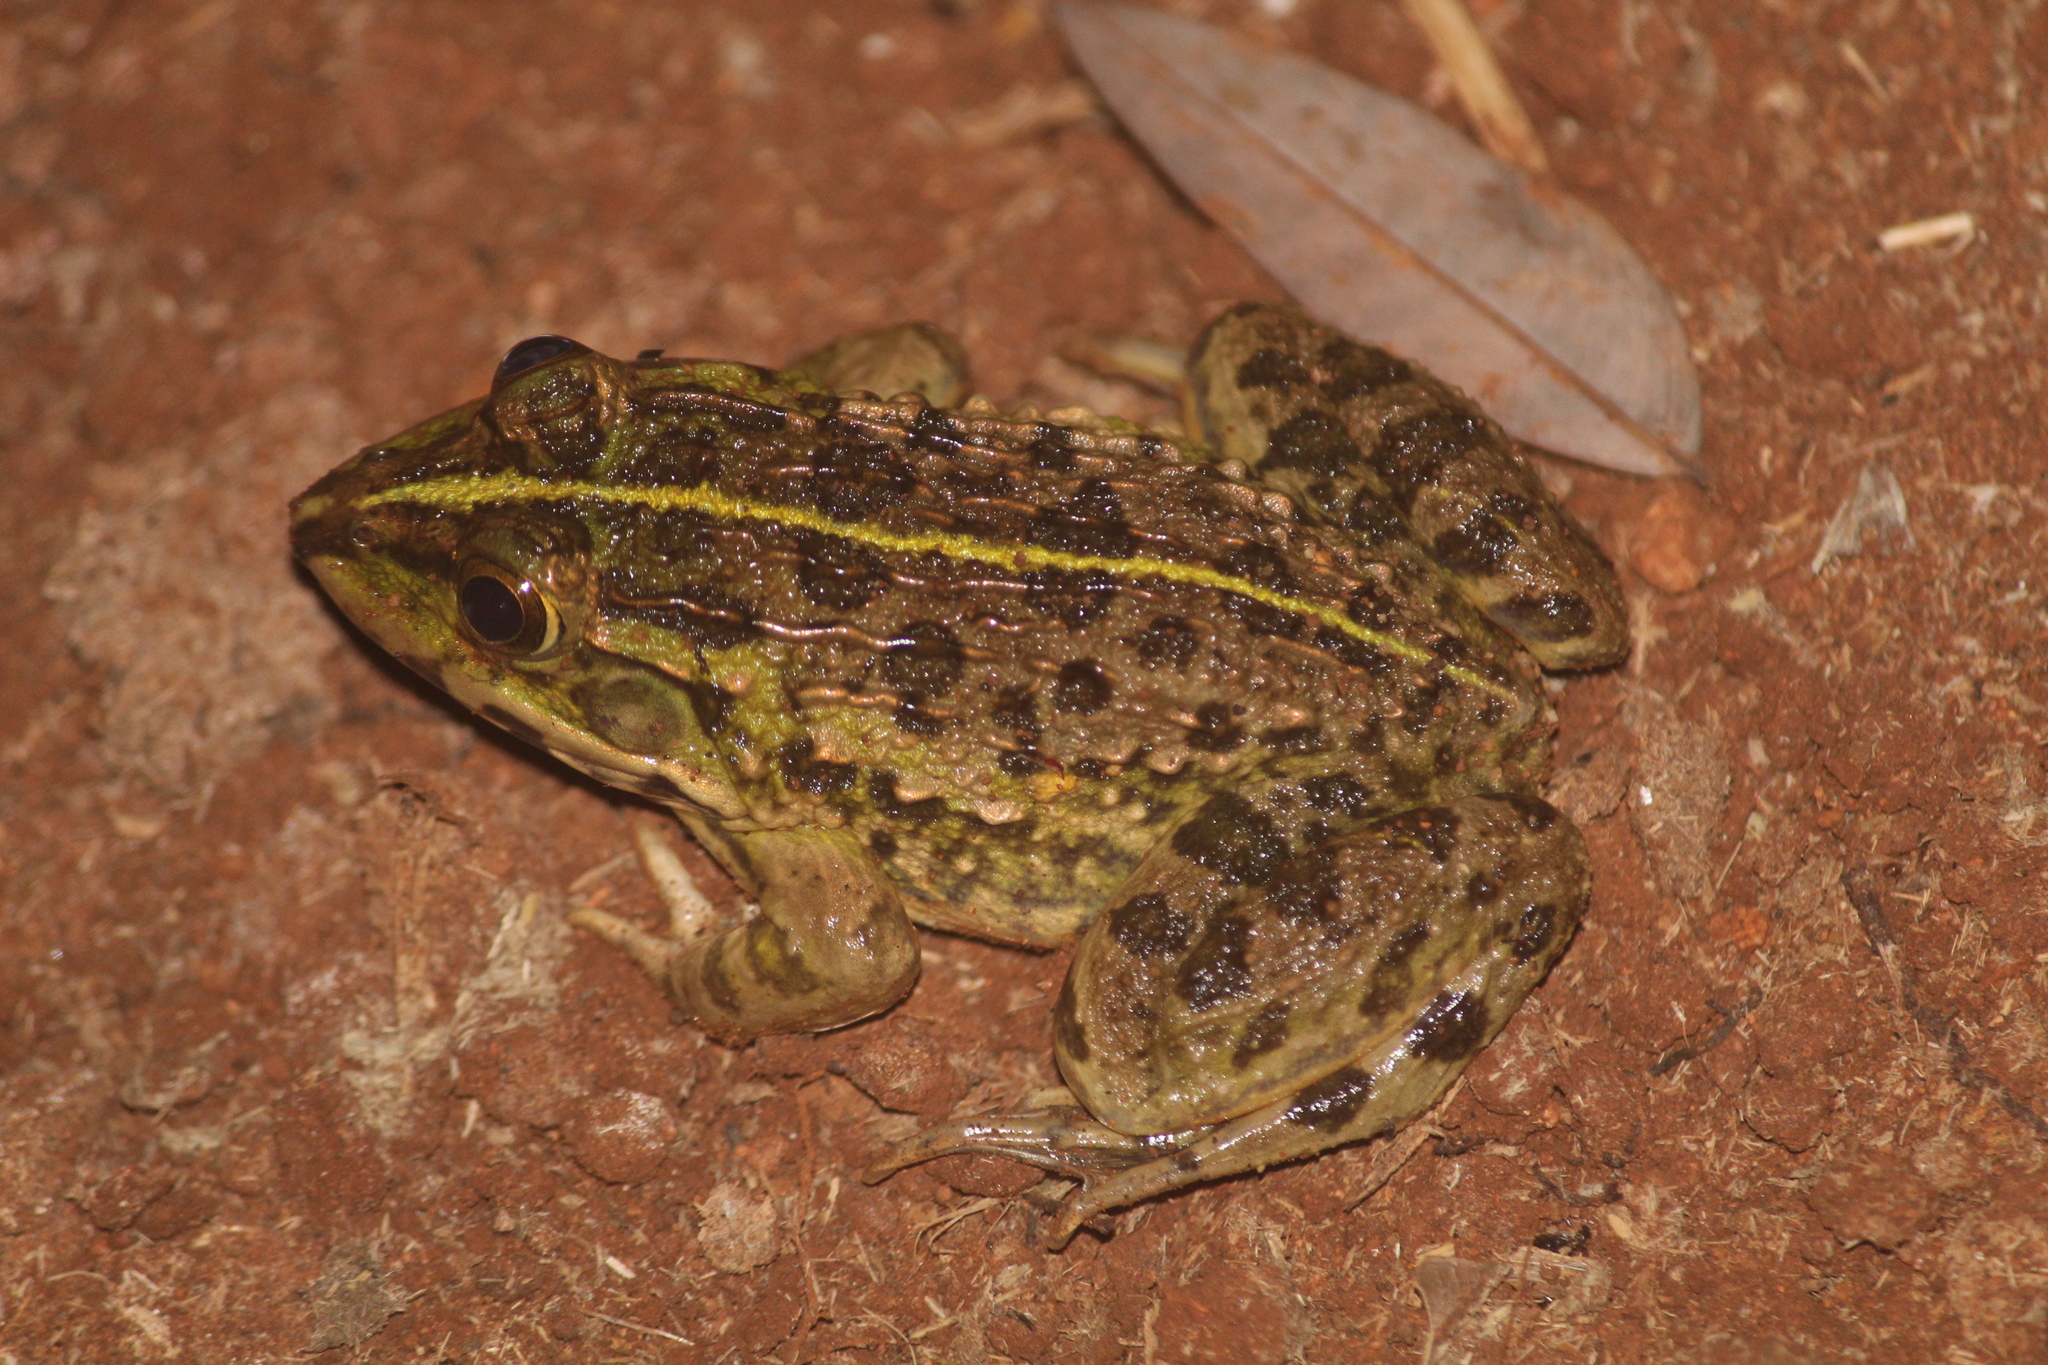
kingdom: Animalia
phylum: Chordata
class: Amphibia
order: Anura
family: Dicroglossidae
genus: Hoplobatrachus
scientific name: Hoplobatrachus tigerinus
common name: Indian bullfrog
